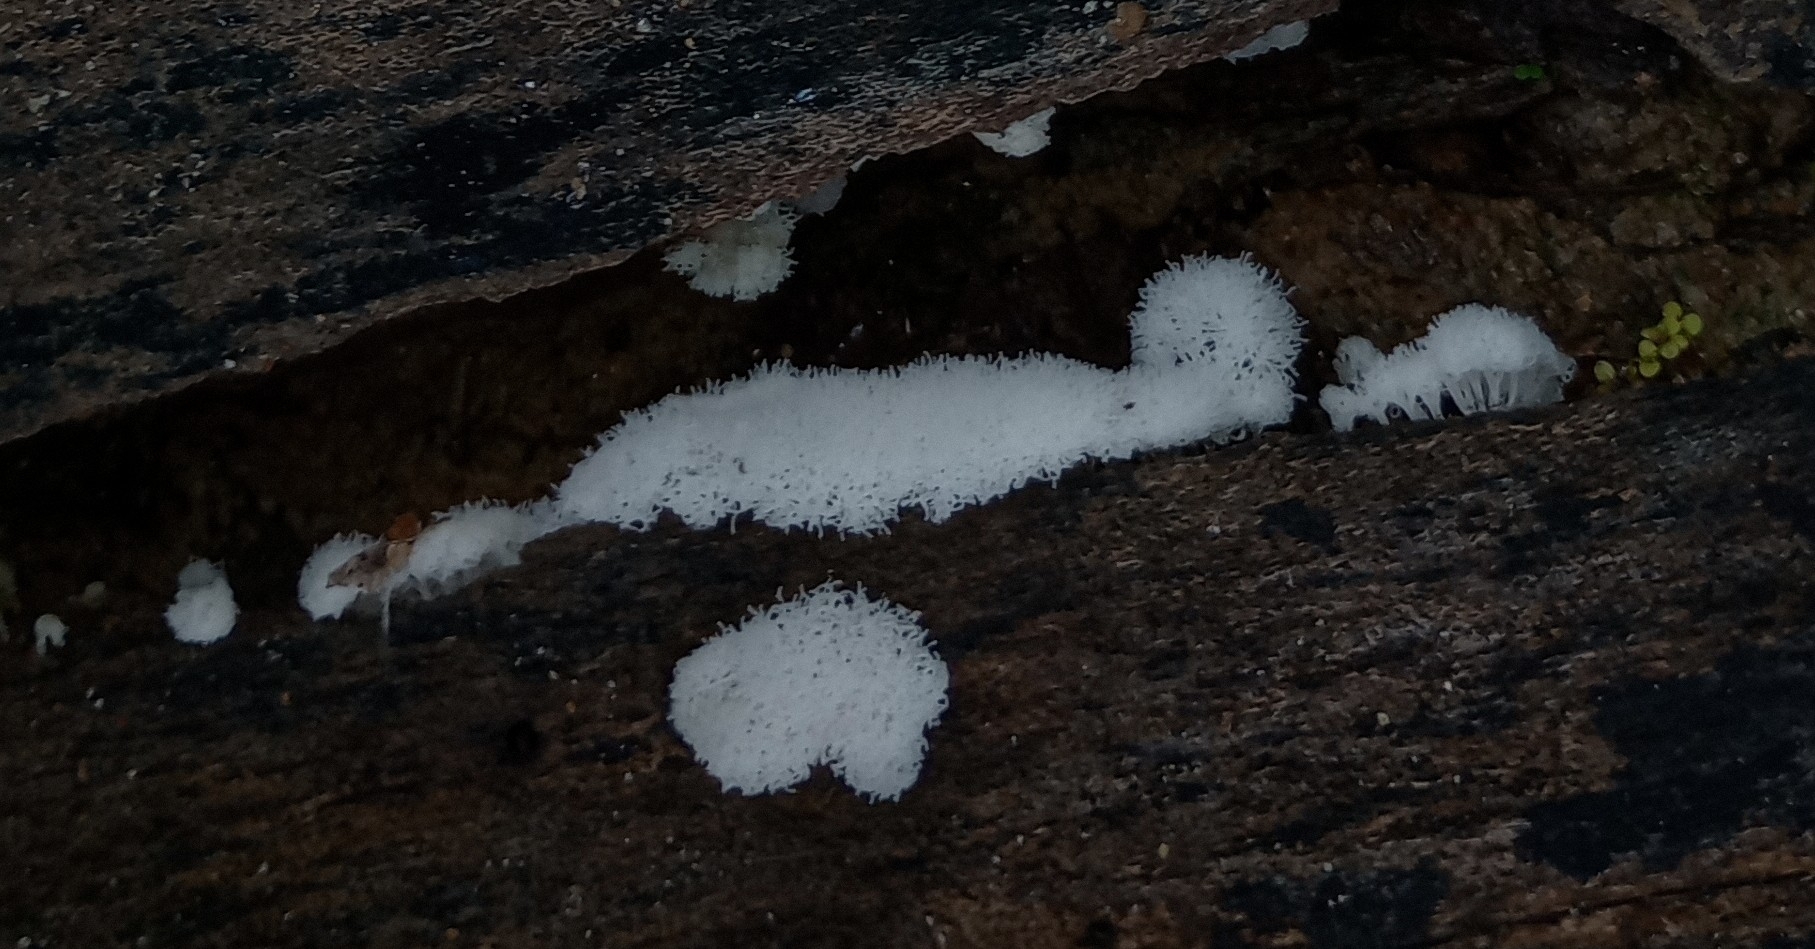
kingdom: Protozoa
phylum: Mycetozoa
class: Protosteliomycetes
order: Ceratiomyxales
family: Ceratiomyxaceae
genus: Ceratiomyxa
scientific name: Ceratiomyxa fruticulosa
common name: Honeycomb coral slime mold
